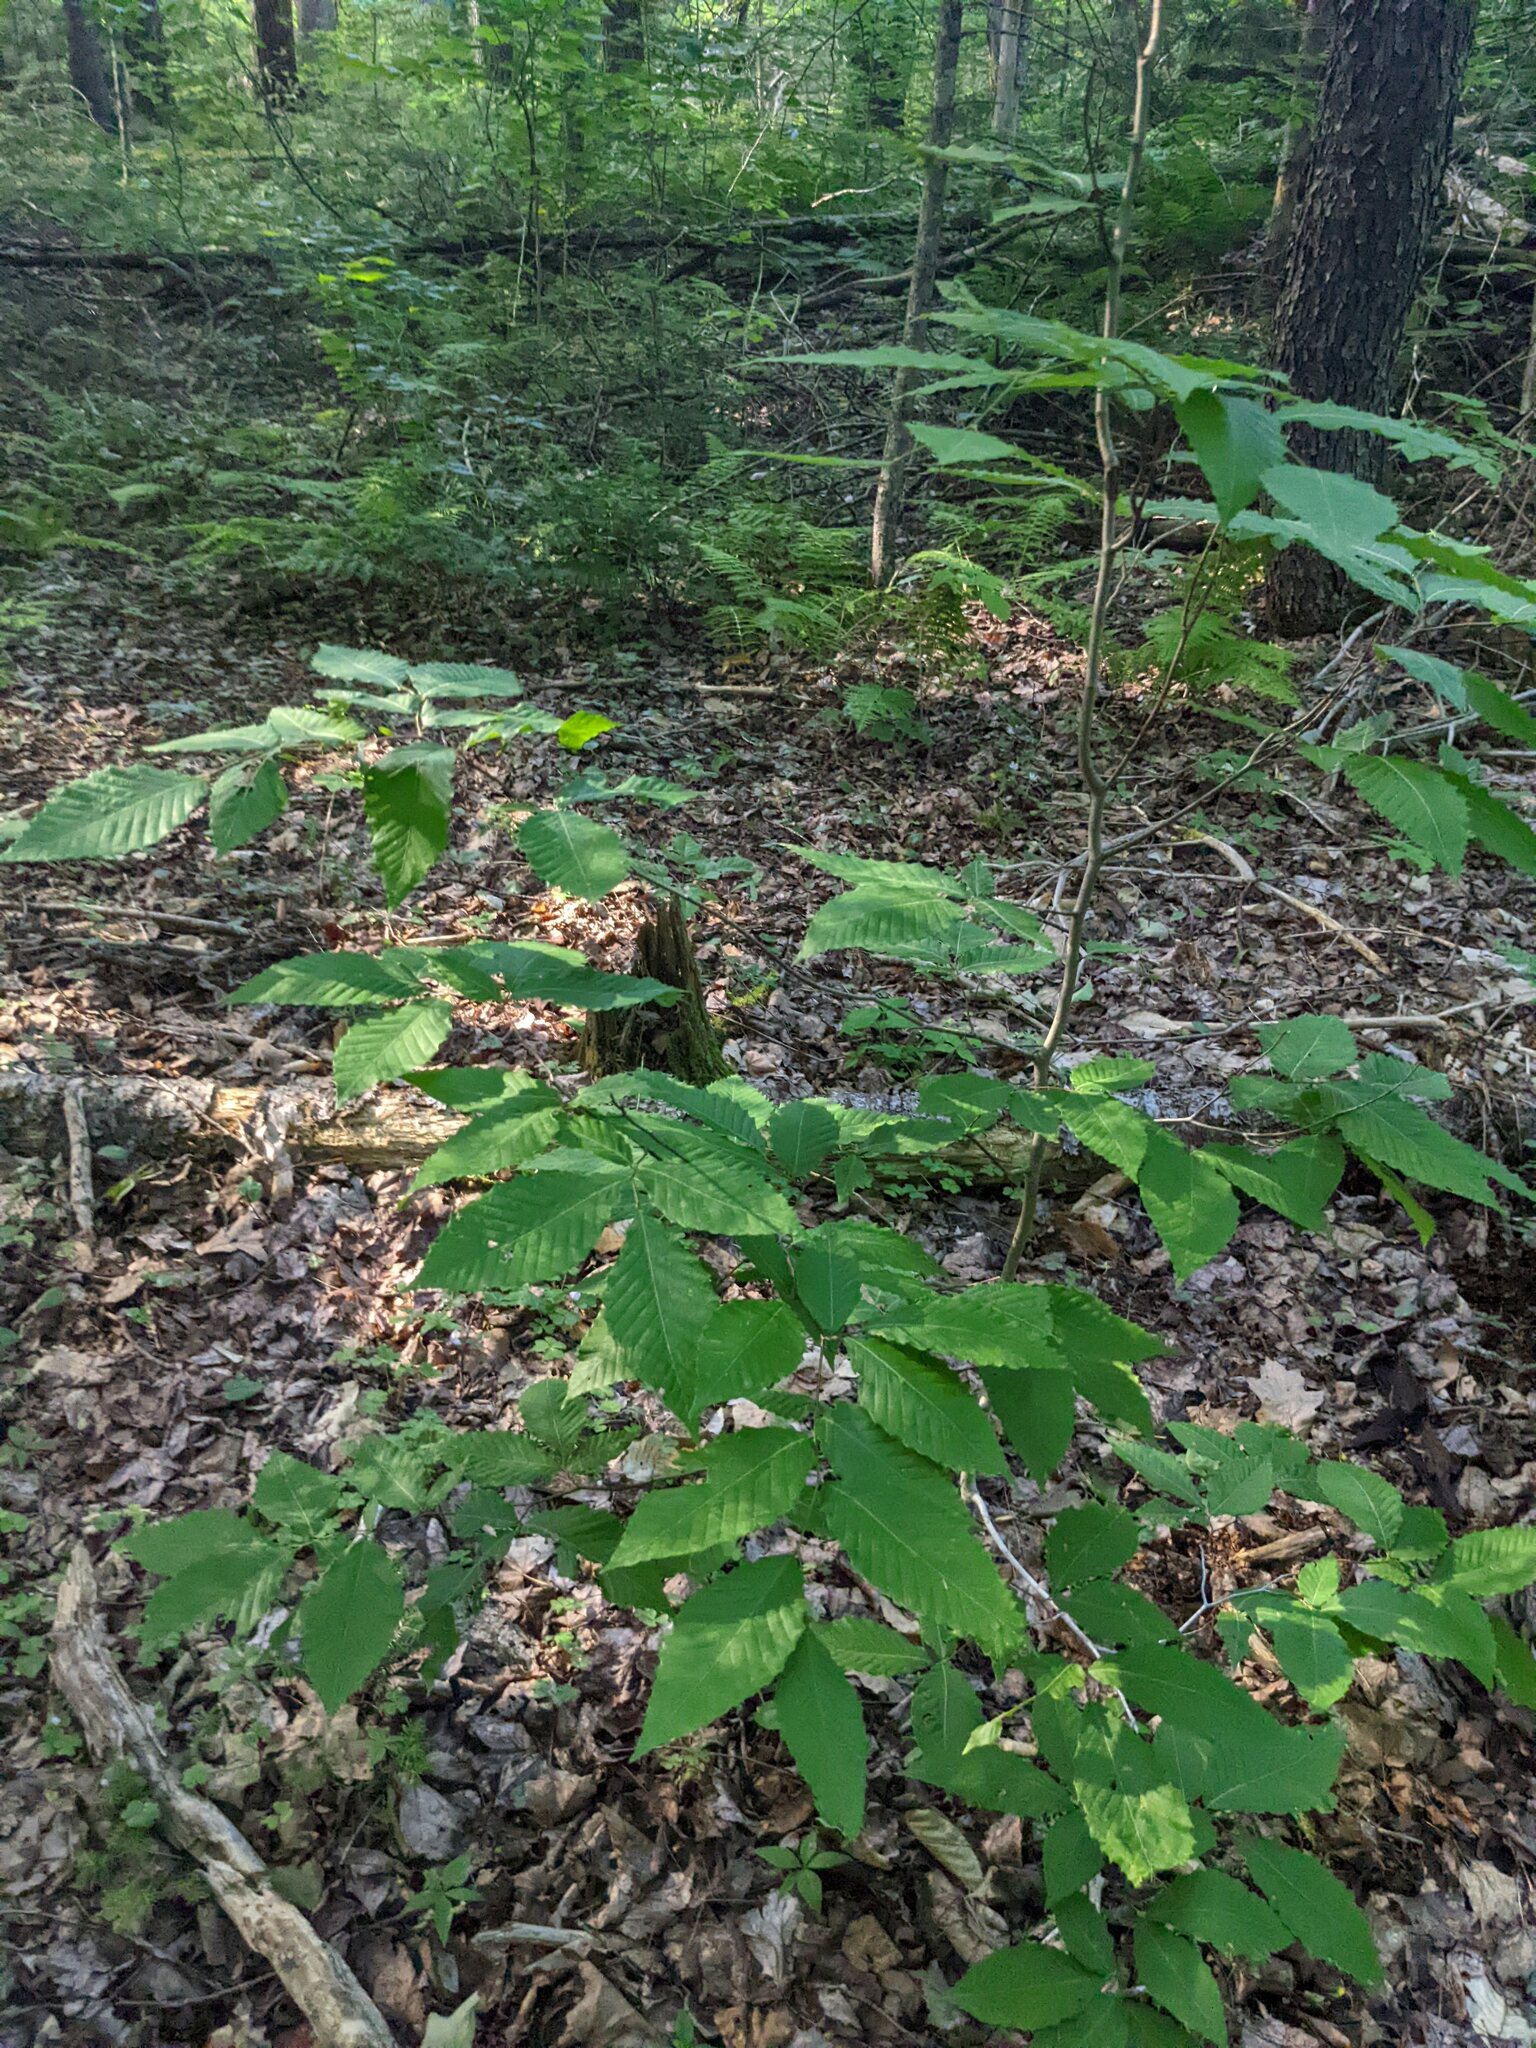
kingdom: Plantae
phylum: Tracheophyta
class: Magnoliopsida
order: Fagales
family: Fagaceae
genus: Fagus
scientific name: Fagus grandifolia
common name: American beech
